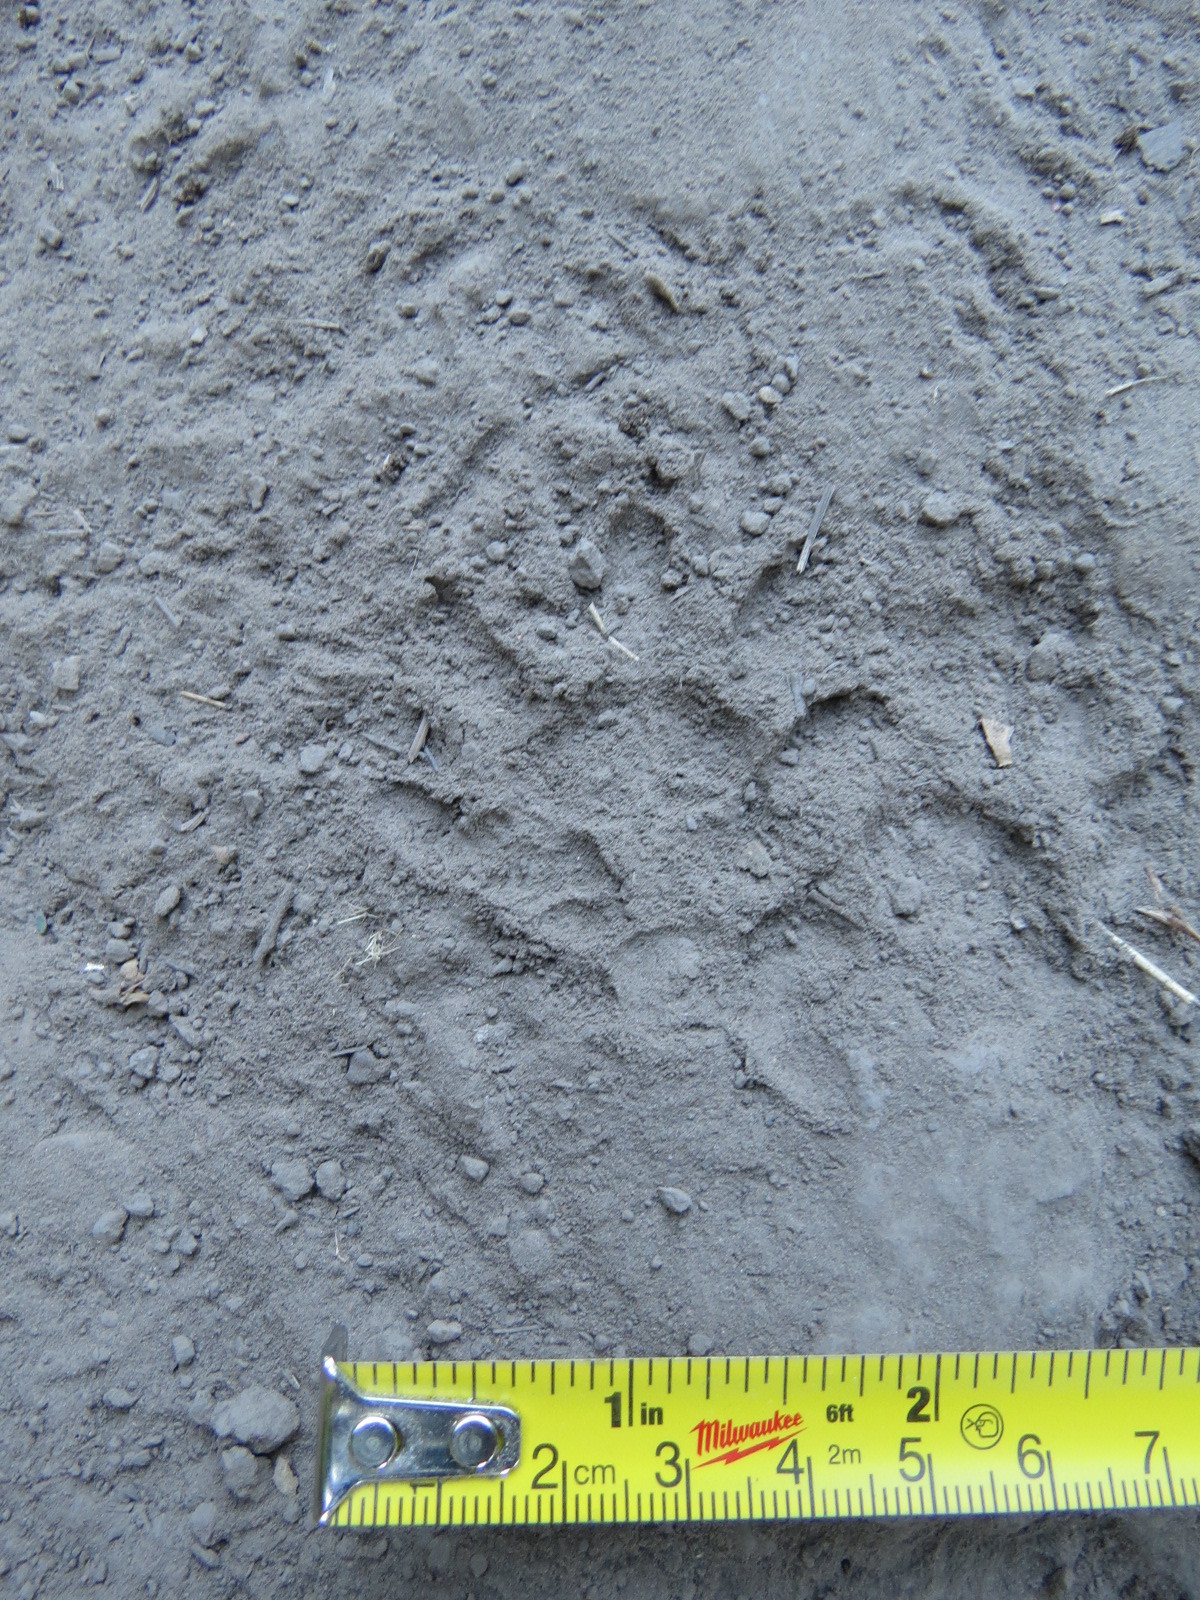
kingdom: Animalia
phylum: Chordata
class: Mammalia
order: Didelphimorphia
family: Didelphidae
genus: Didelphis
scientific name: Didelphis virginiana
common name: Virginia opossum
